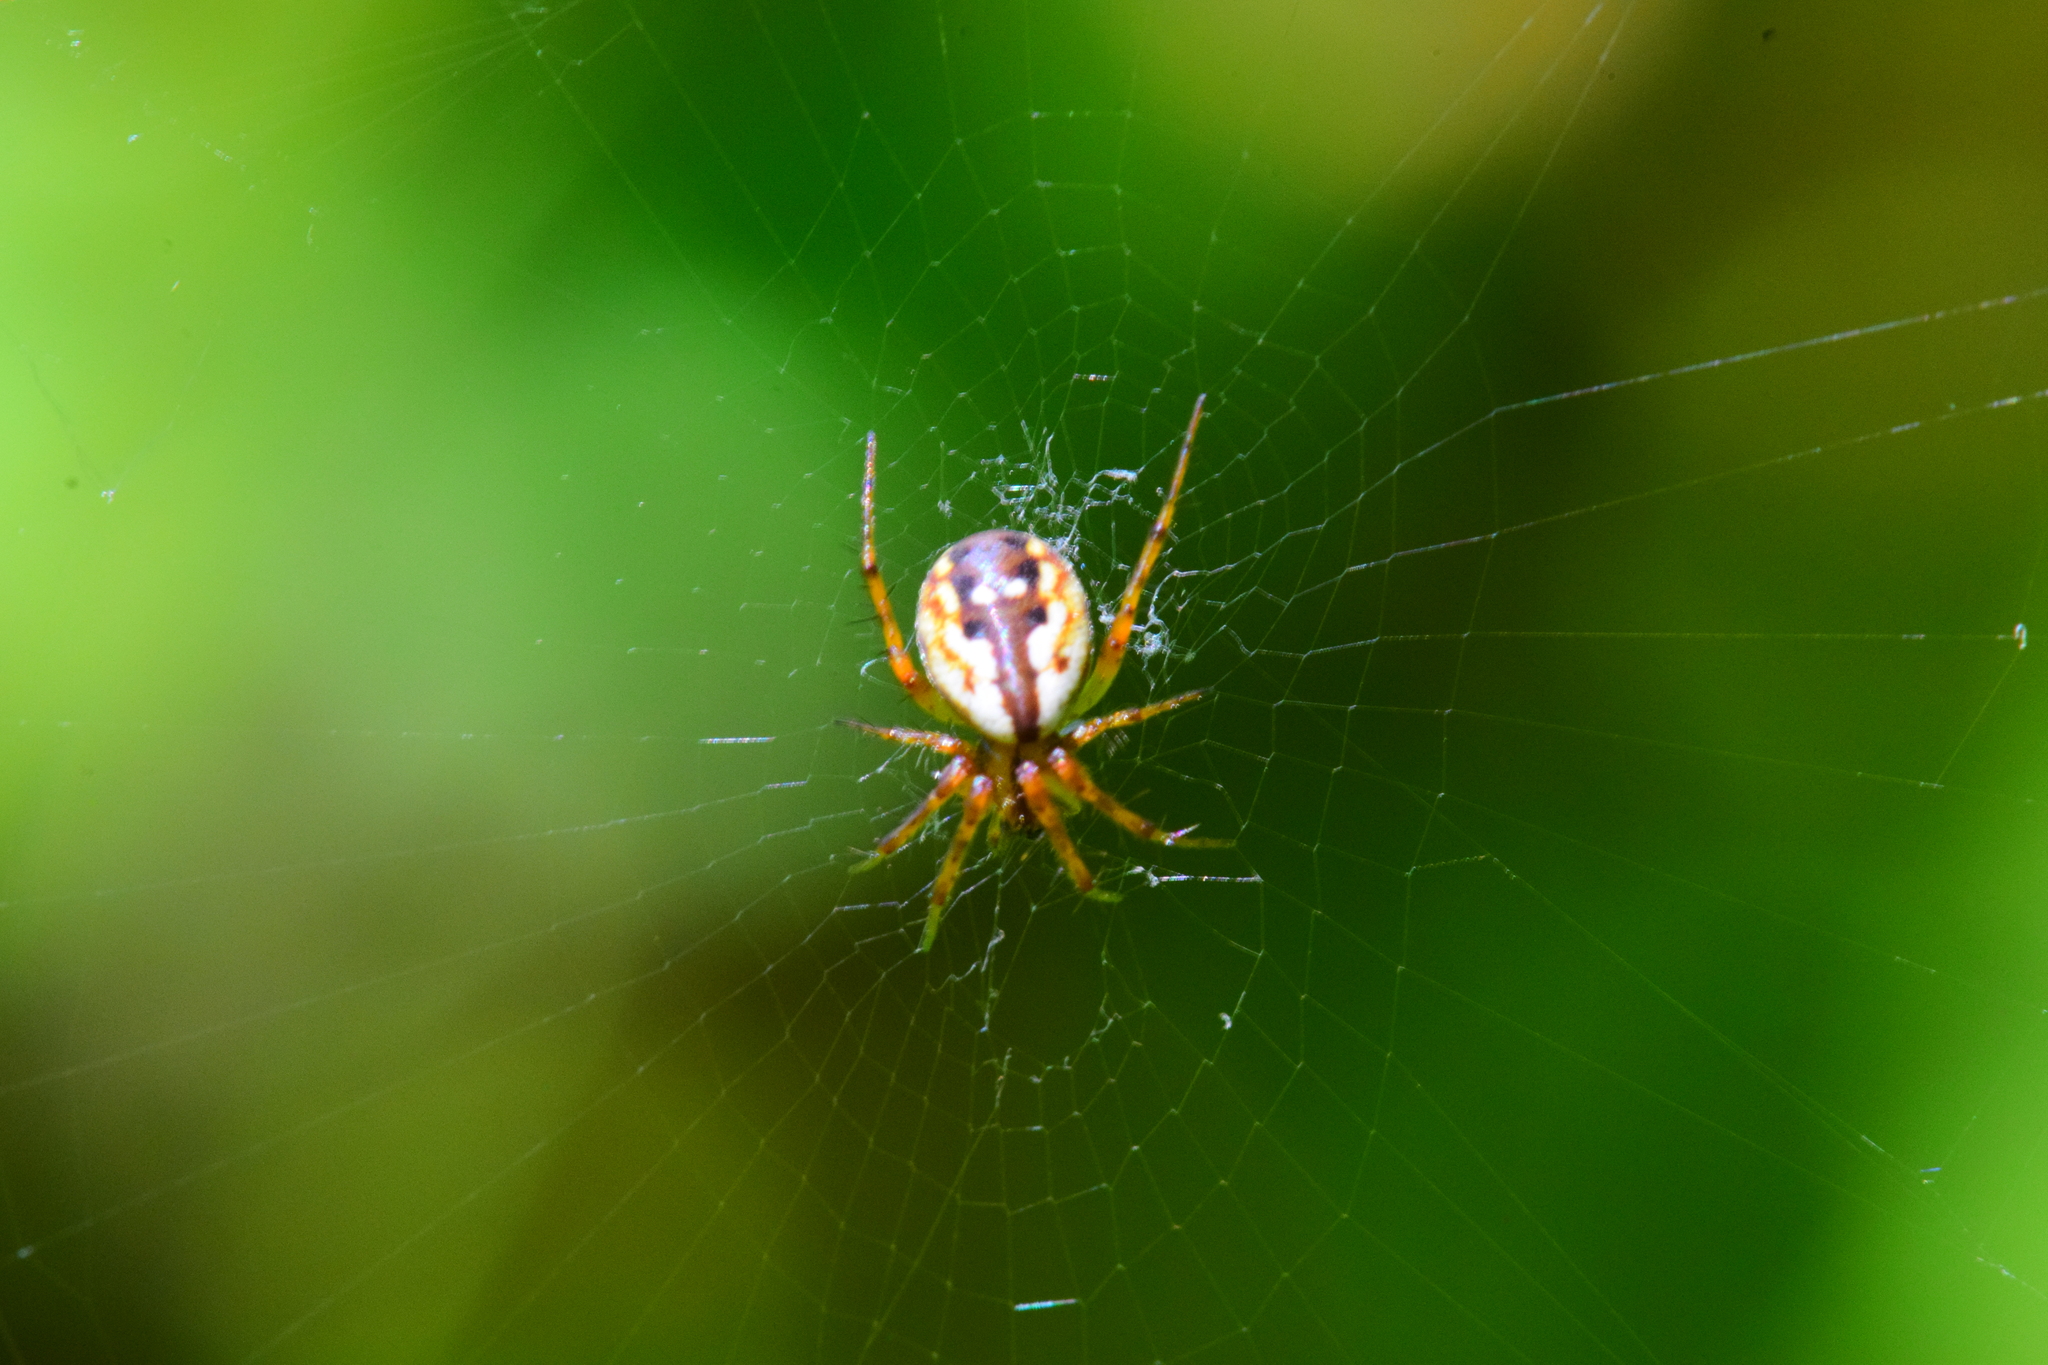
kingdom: Animalia
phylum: Arthropoda
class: Arachnida
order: Araneae
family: Araneidae
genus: Mangora
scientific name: Mangora placida
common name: Tuft-legged orbweaver
